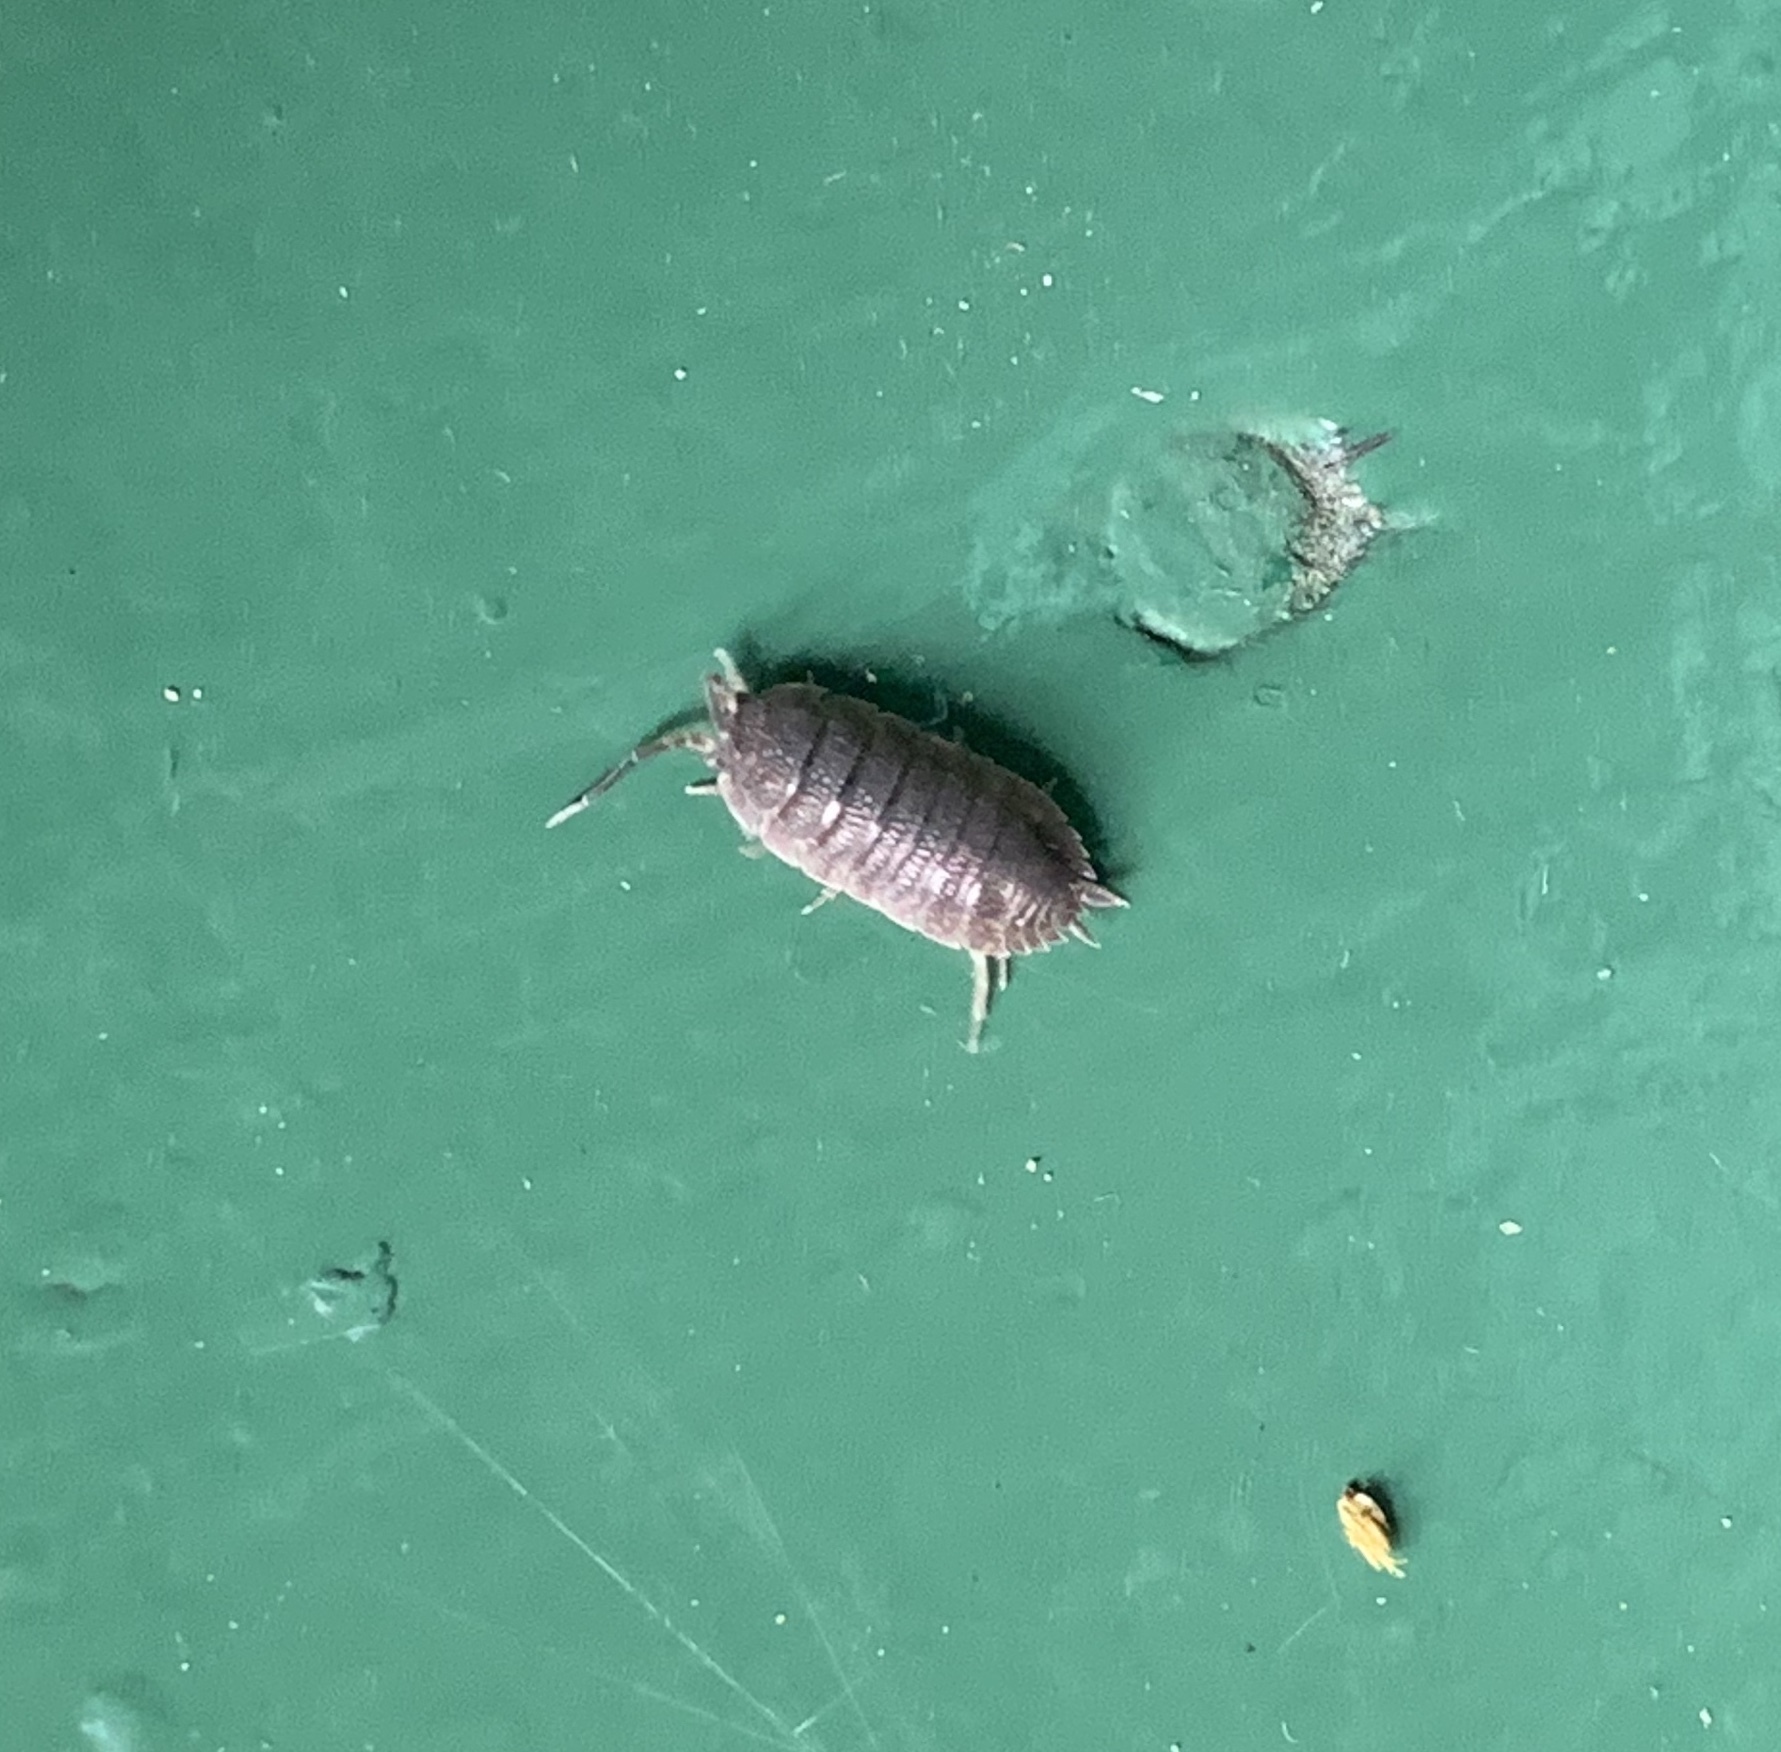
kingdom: Animalia
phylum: Arthropoda
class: Malacostraca
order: Isopoda
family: Porcellionidae
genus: Porcellio
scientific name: Porcellio scaber
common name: Common rough woodlouse
